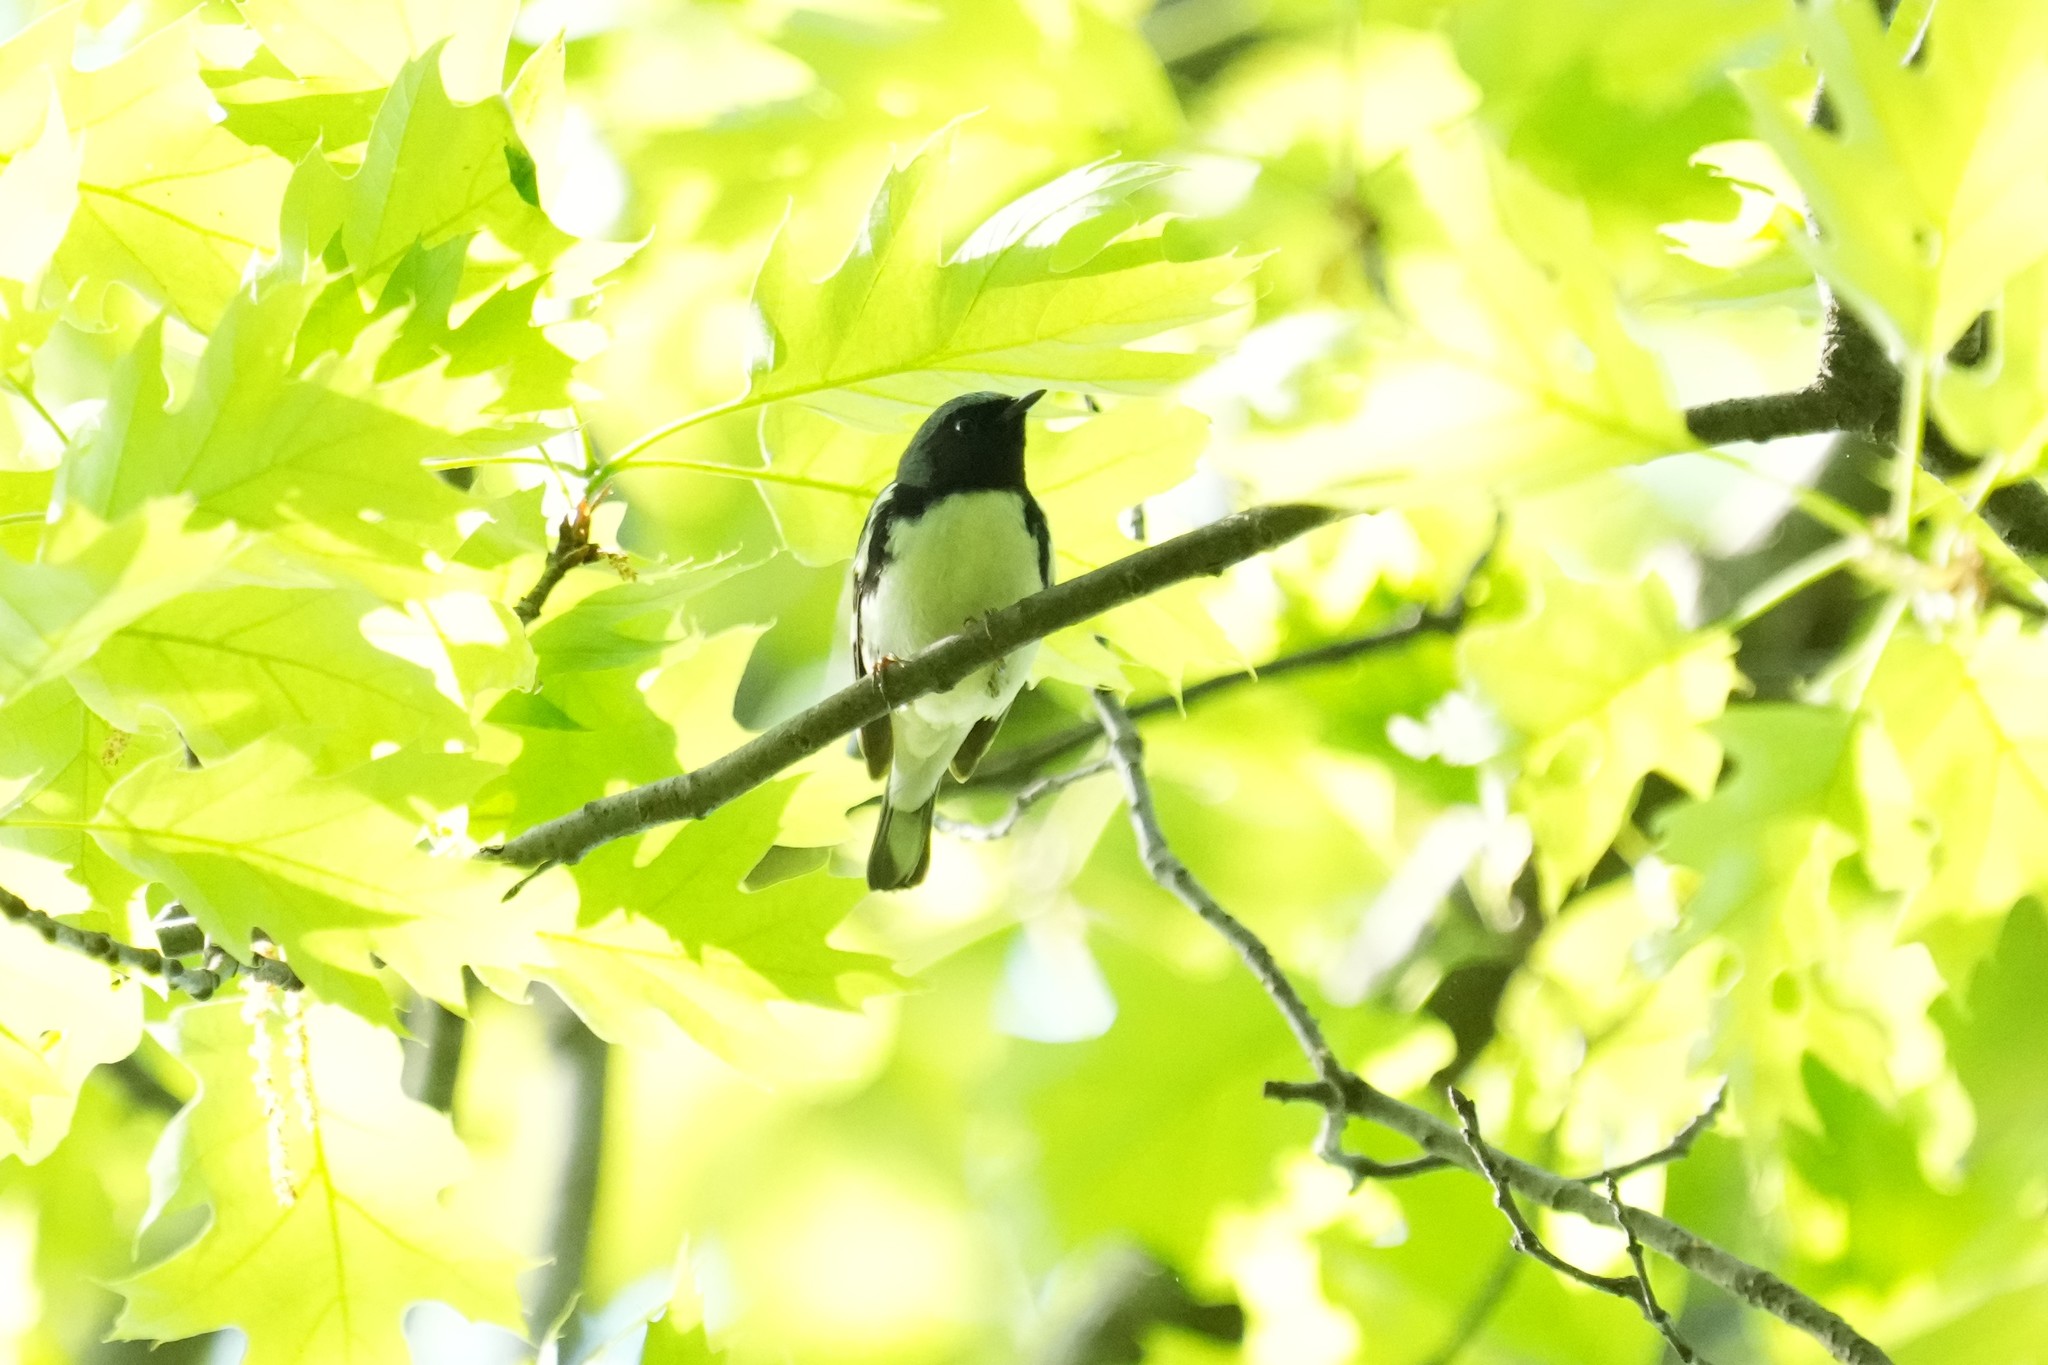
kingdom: Animalia
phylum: Chordata
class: Aves
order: Passeriformes
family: Parulidae
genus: Setophaga
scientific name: Setophaga caerulescens
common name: Black-throated blue warbler
